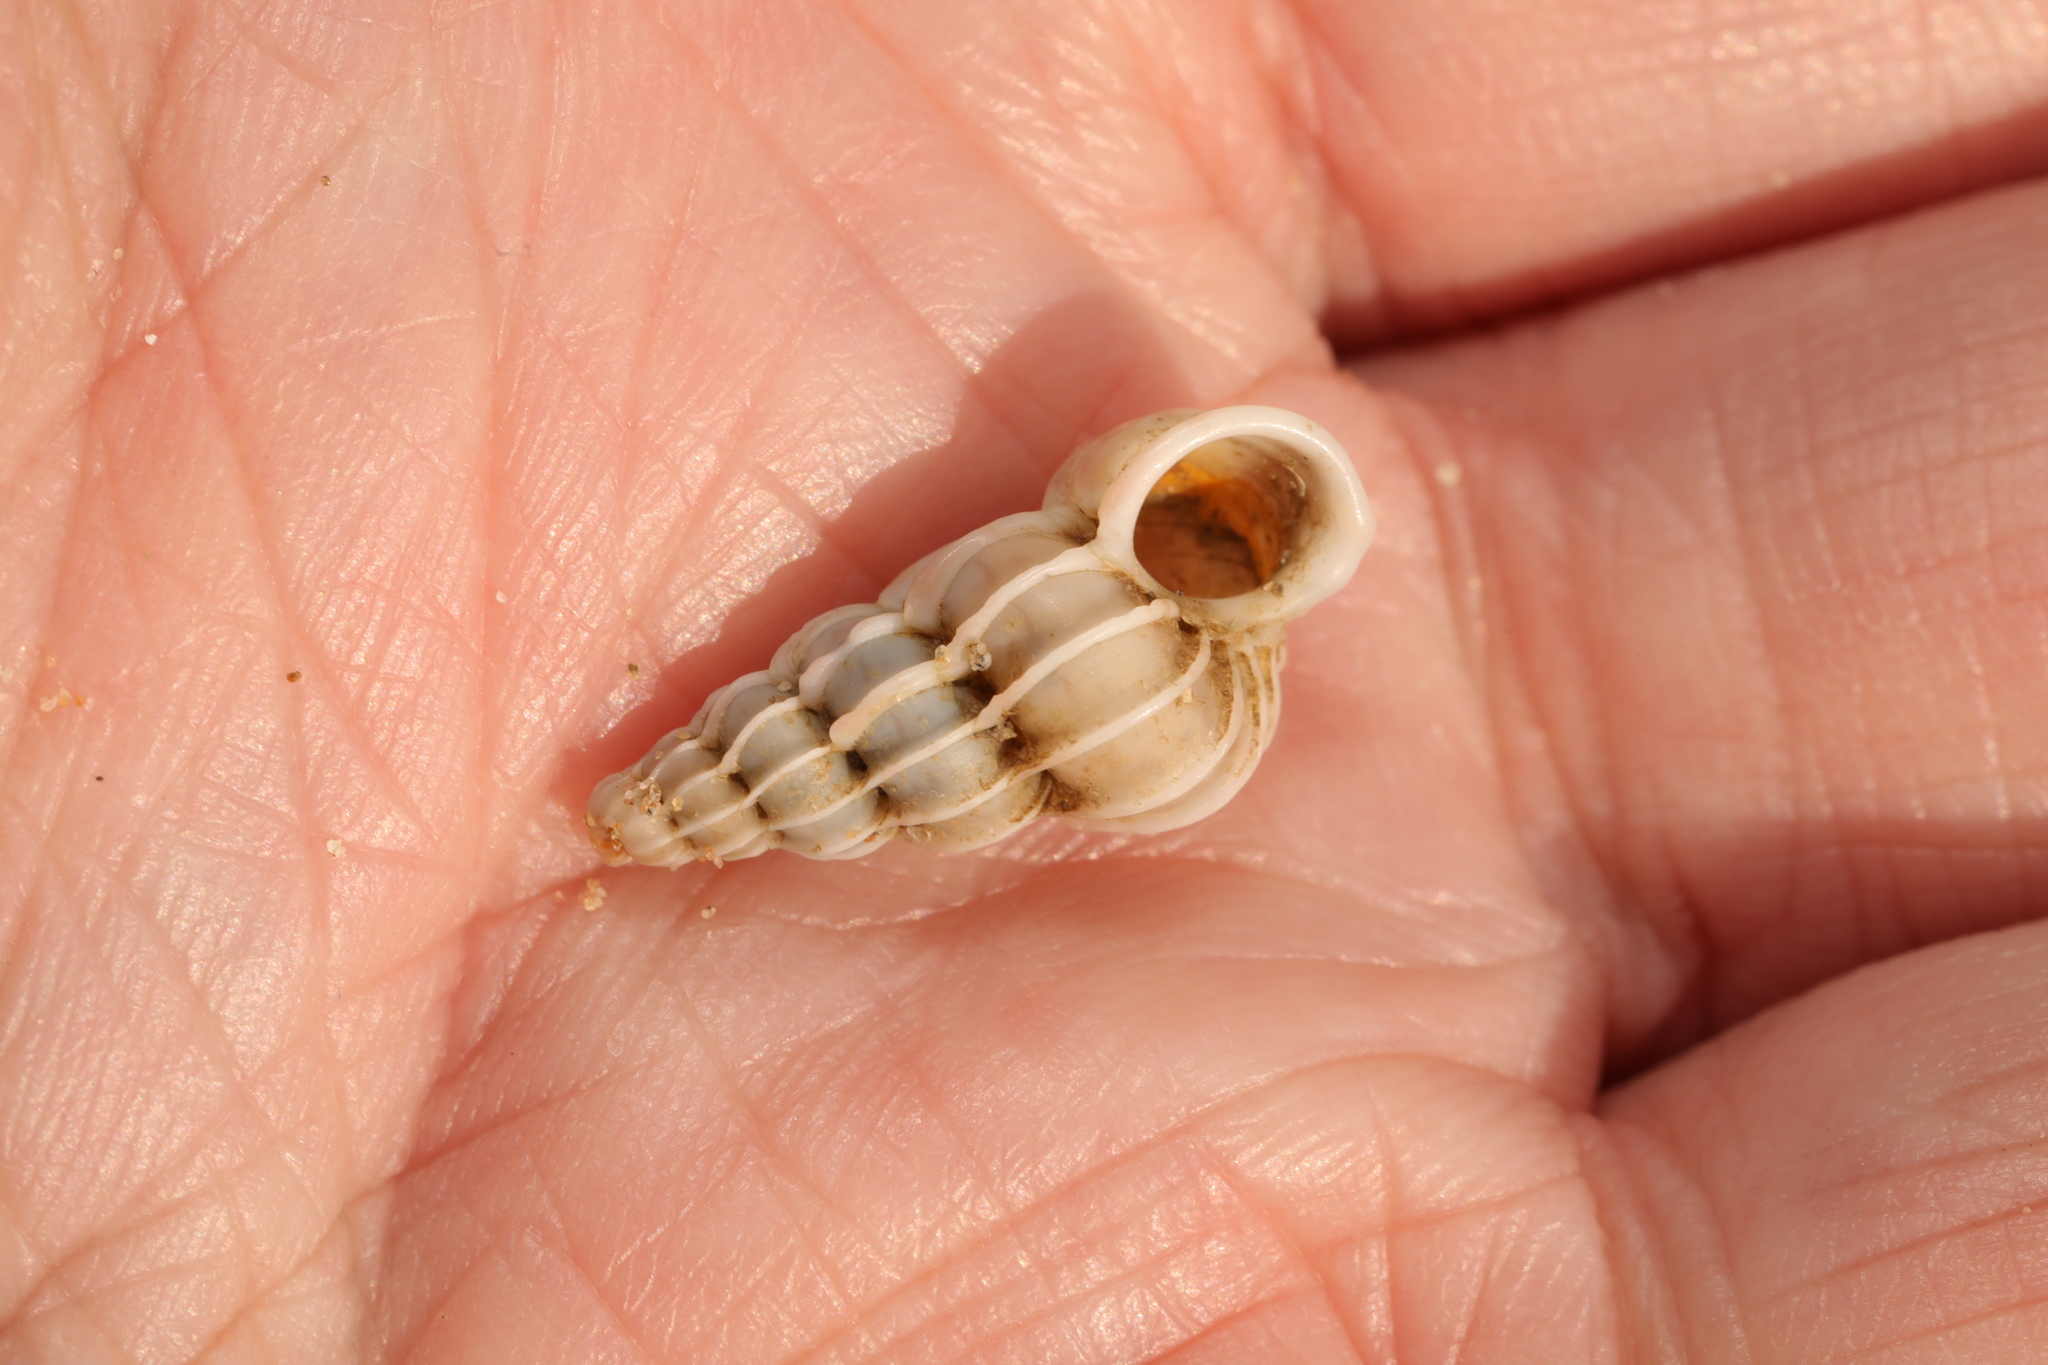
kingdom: Animalia
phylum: Mollusca
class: Gastropoda
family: Epitoniidae
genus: Epitonium
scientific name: Epitonium clathrus
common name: Common wentletrap
